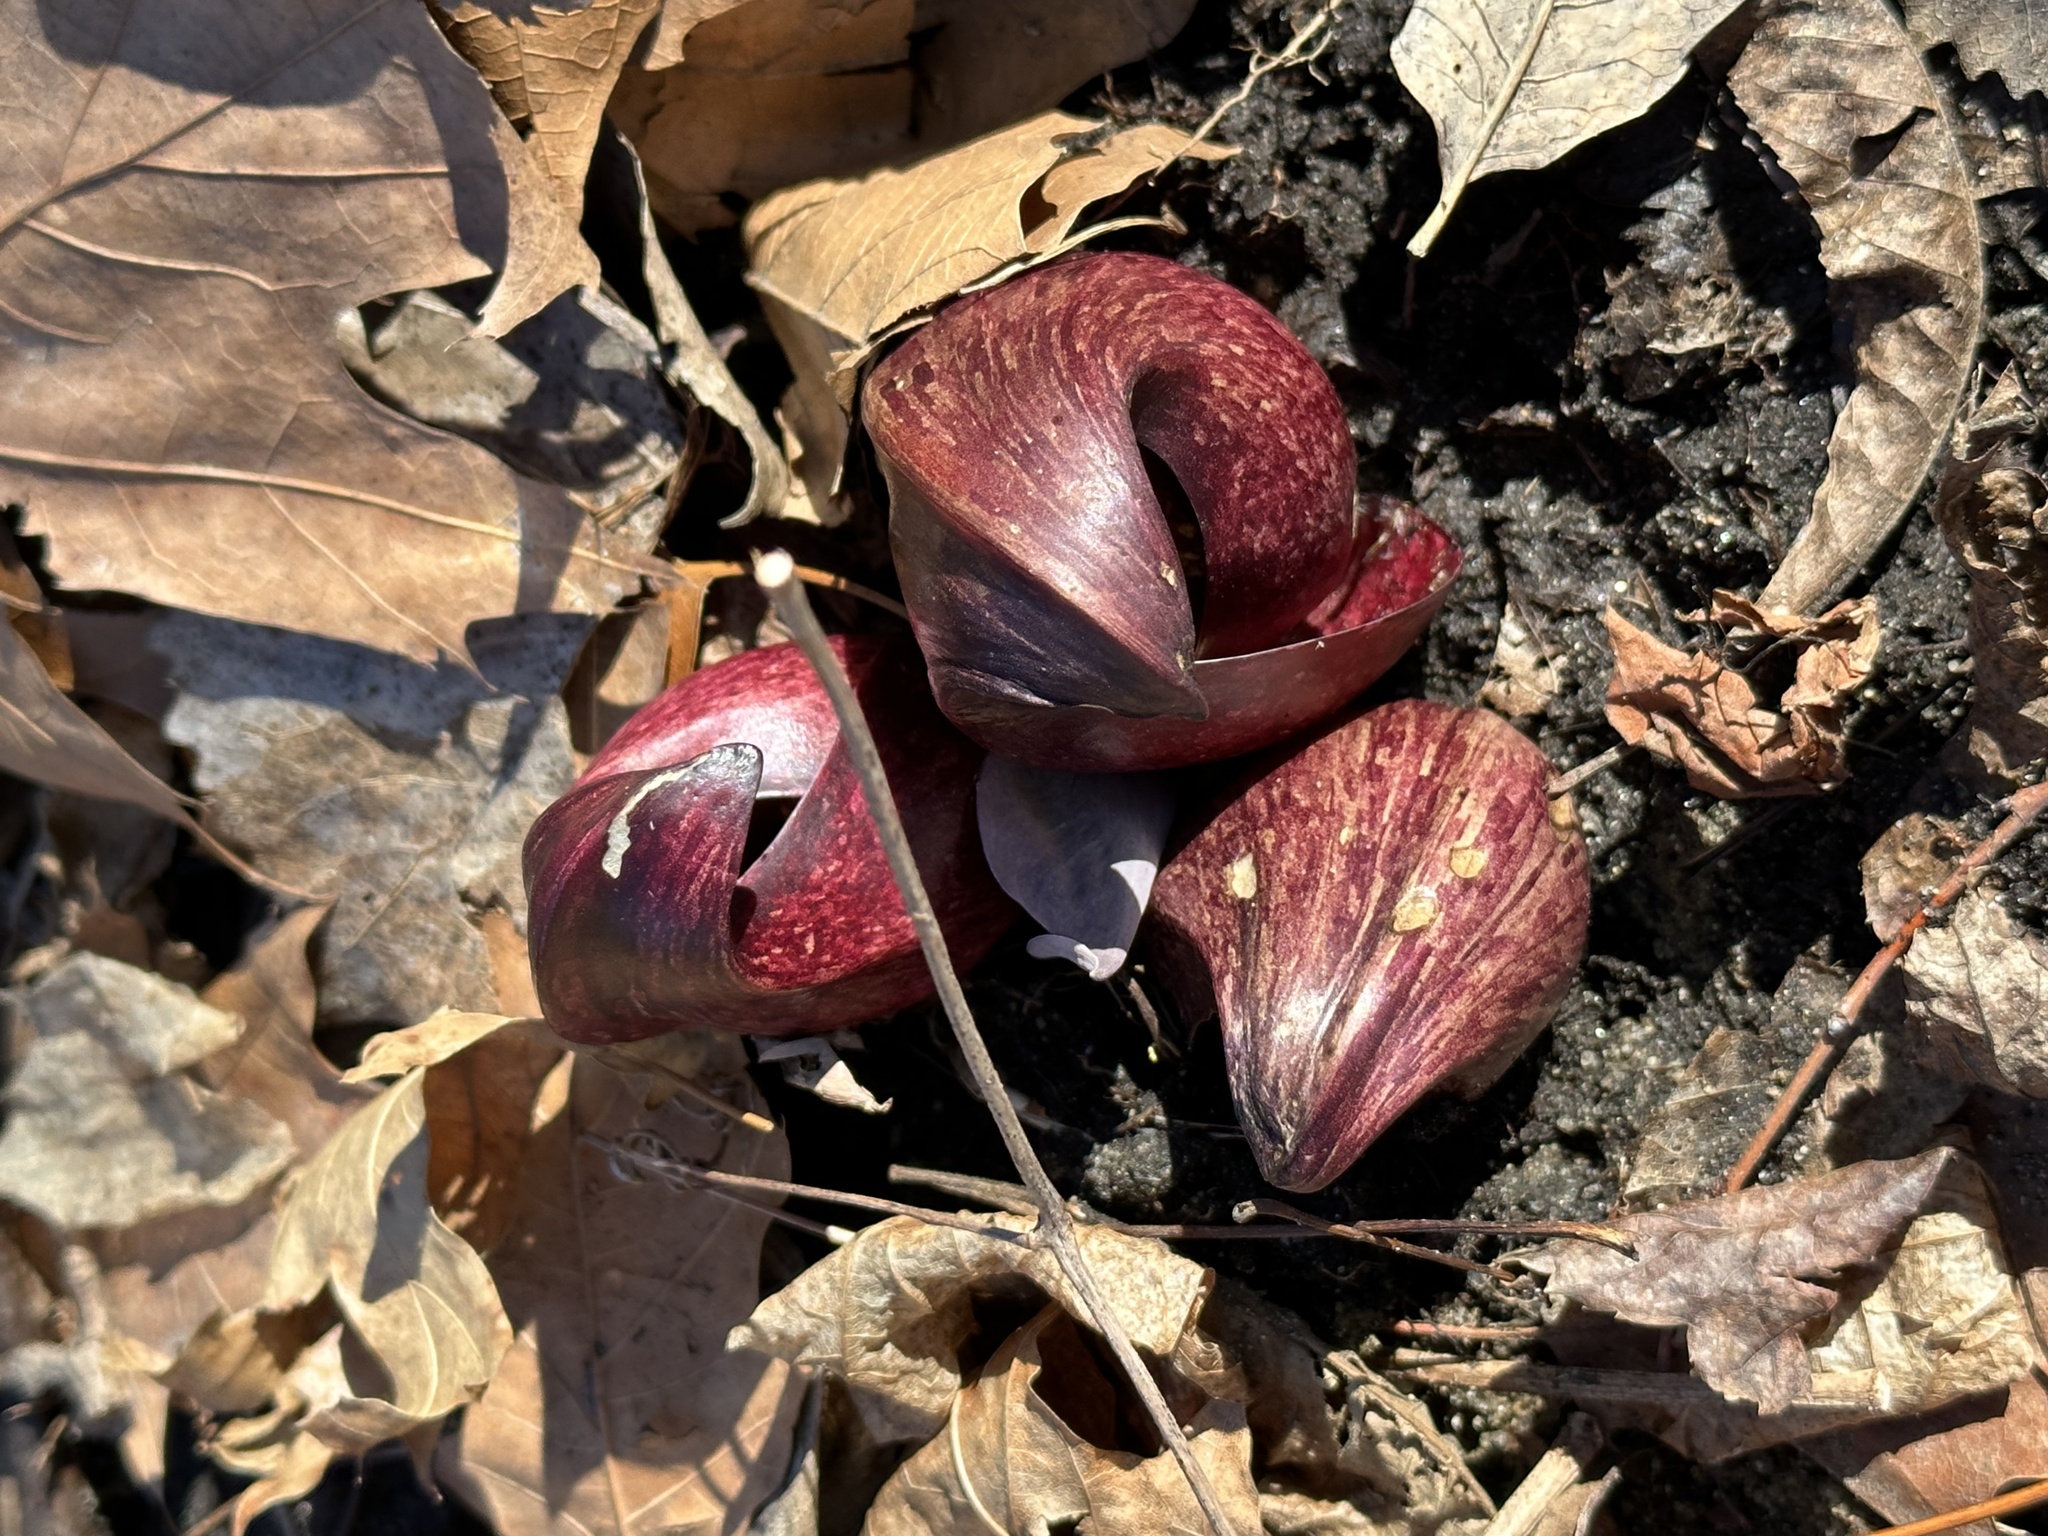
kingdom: Plantae
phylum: Tracheophyta
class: Liliopsida
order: Alismatales
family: Araceae
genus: Symplocarpus
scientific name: Symplocarpus foetidus
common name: Eastern skunk cabbage
